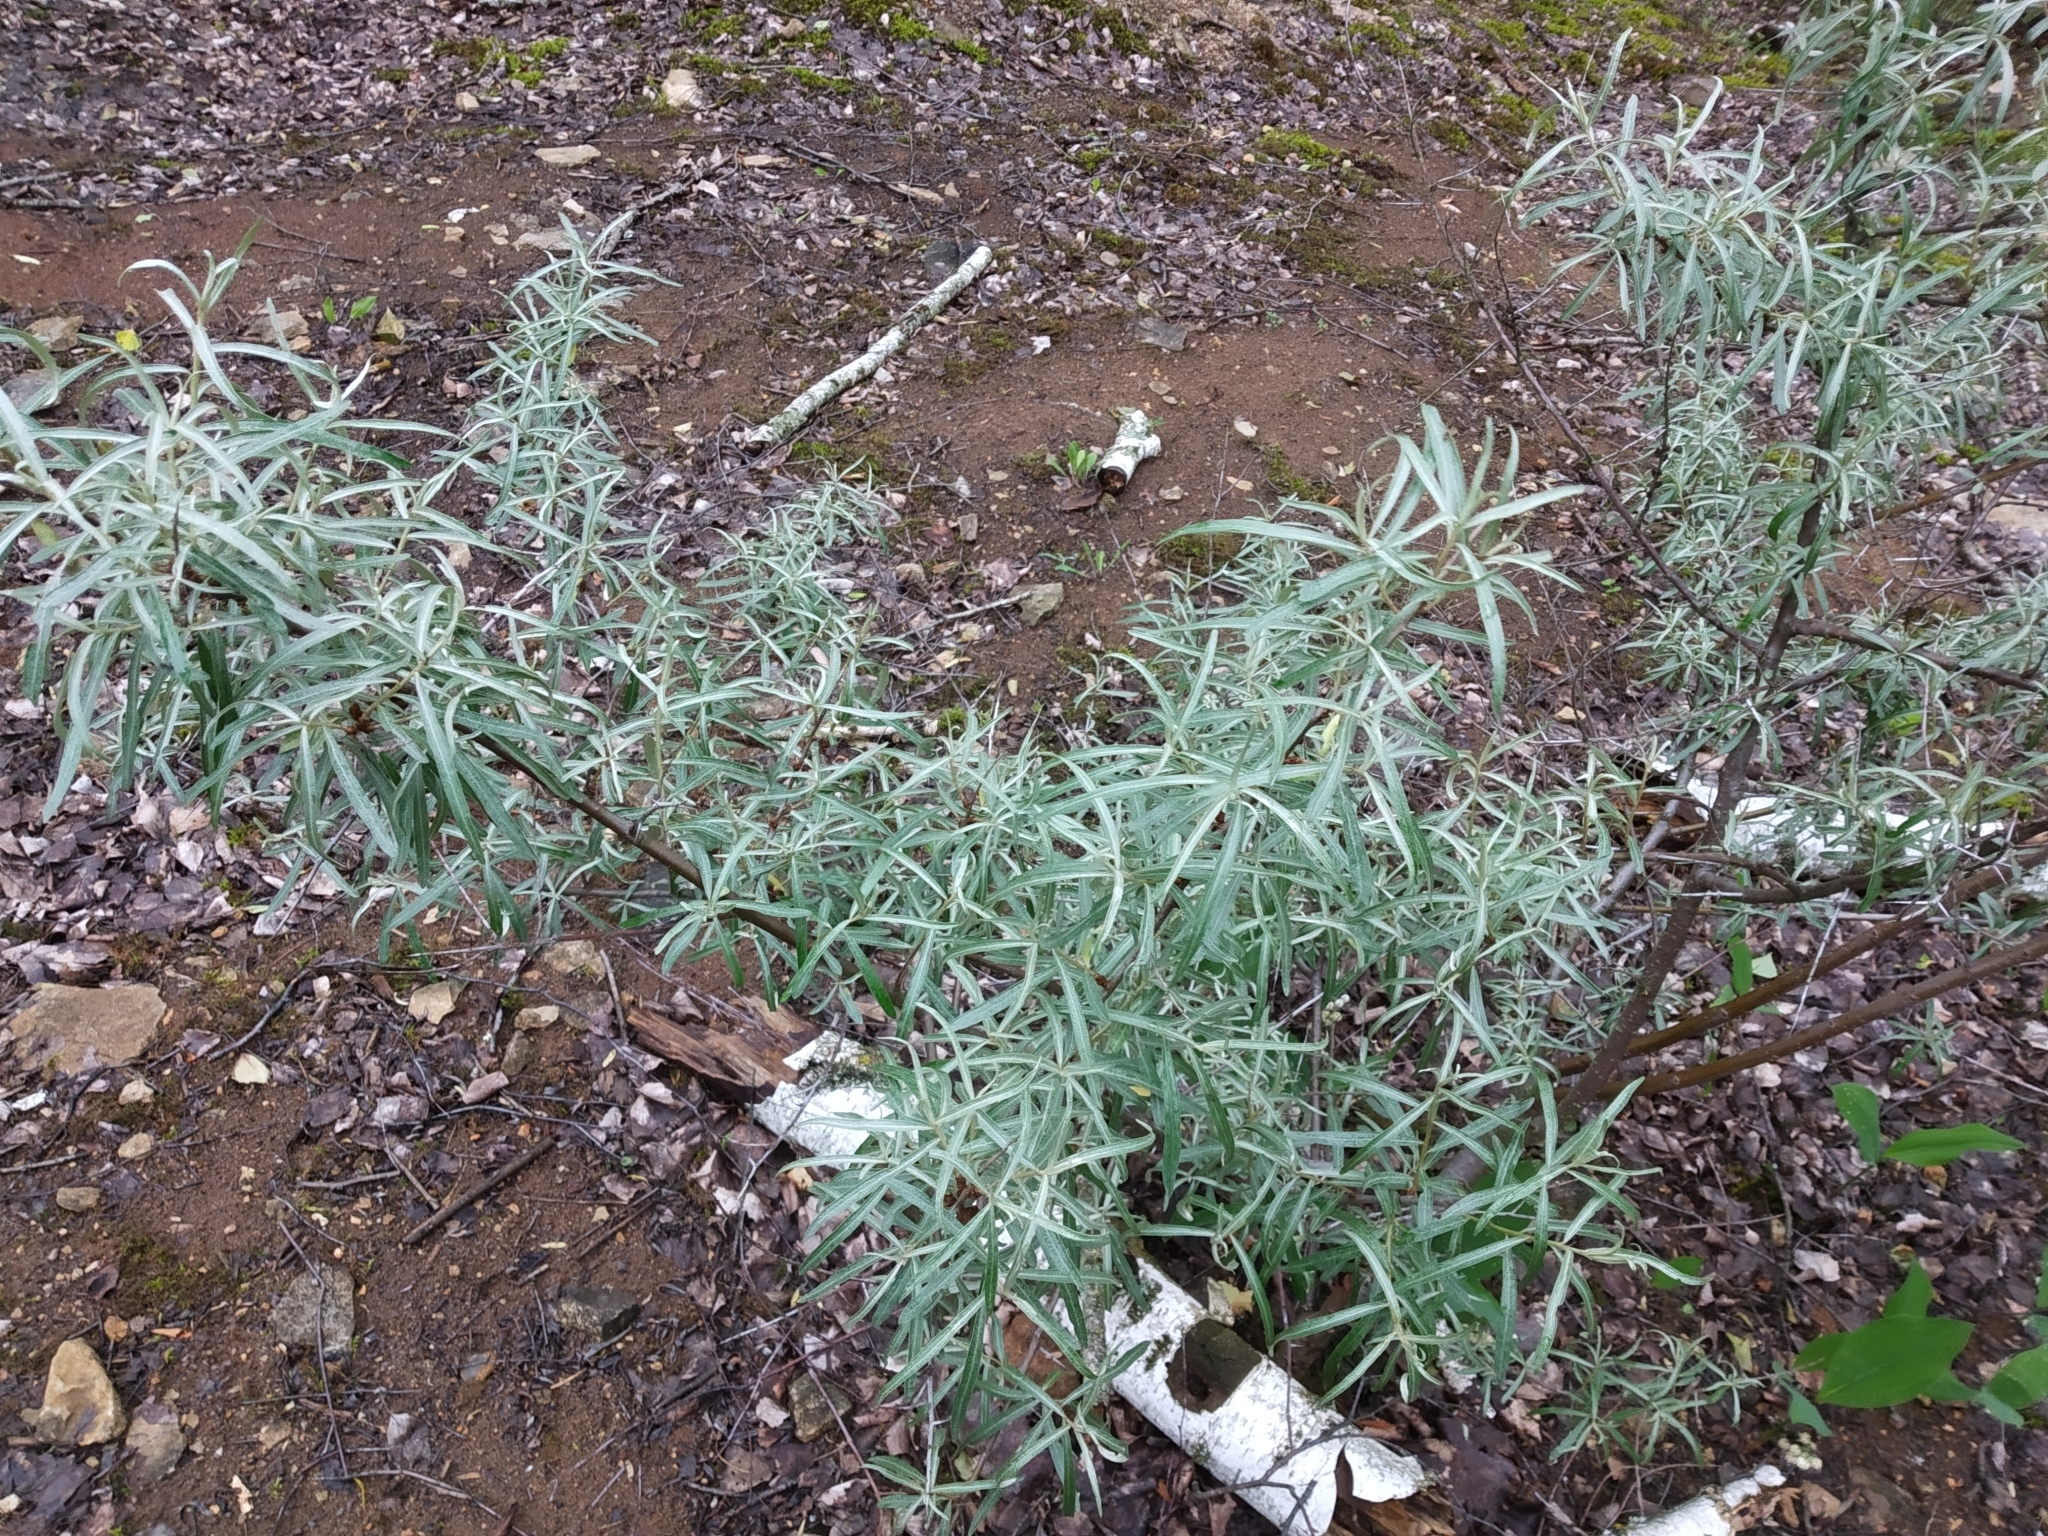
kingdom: Plantae
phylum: Tracheophyta
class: Magnoliopsida
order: Rosales
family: Elaeagnaceae
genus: Hippophae
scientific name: Hippophae rhamnoides
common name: Sea-buckthorn
